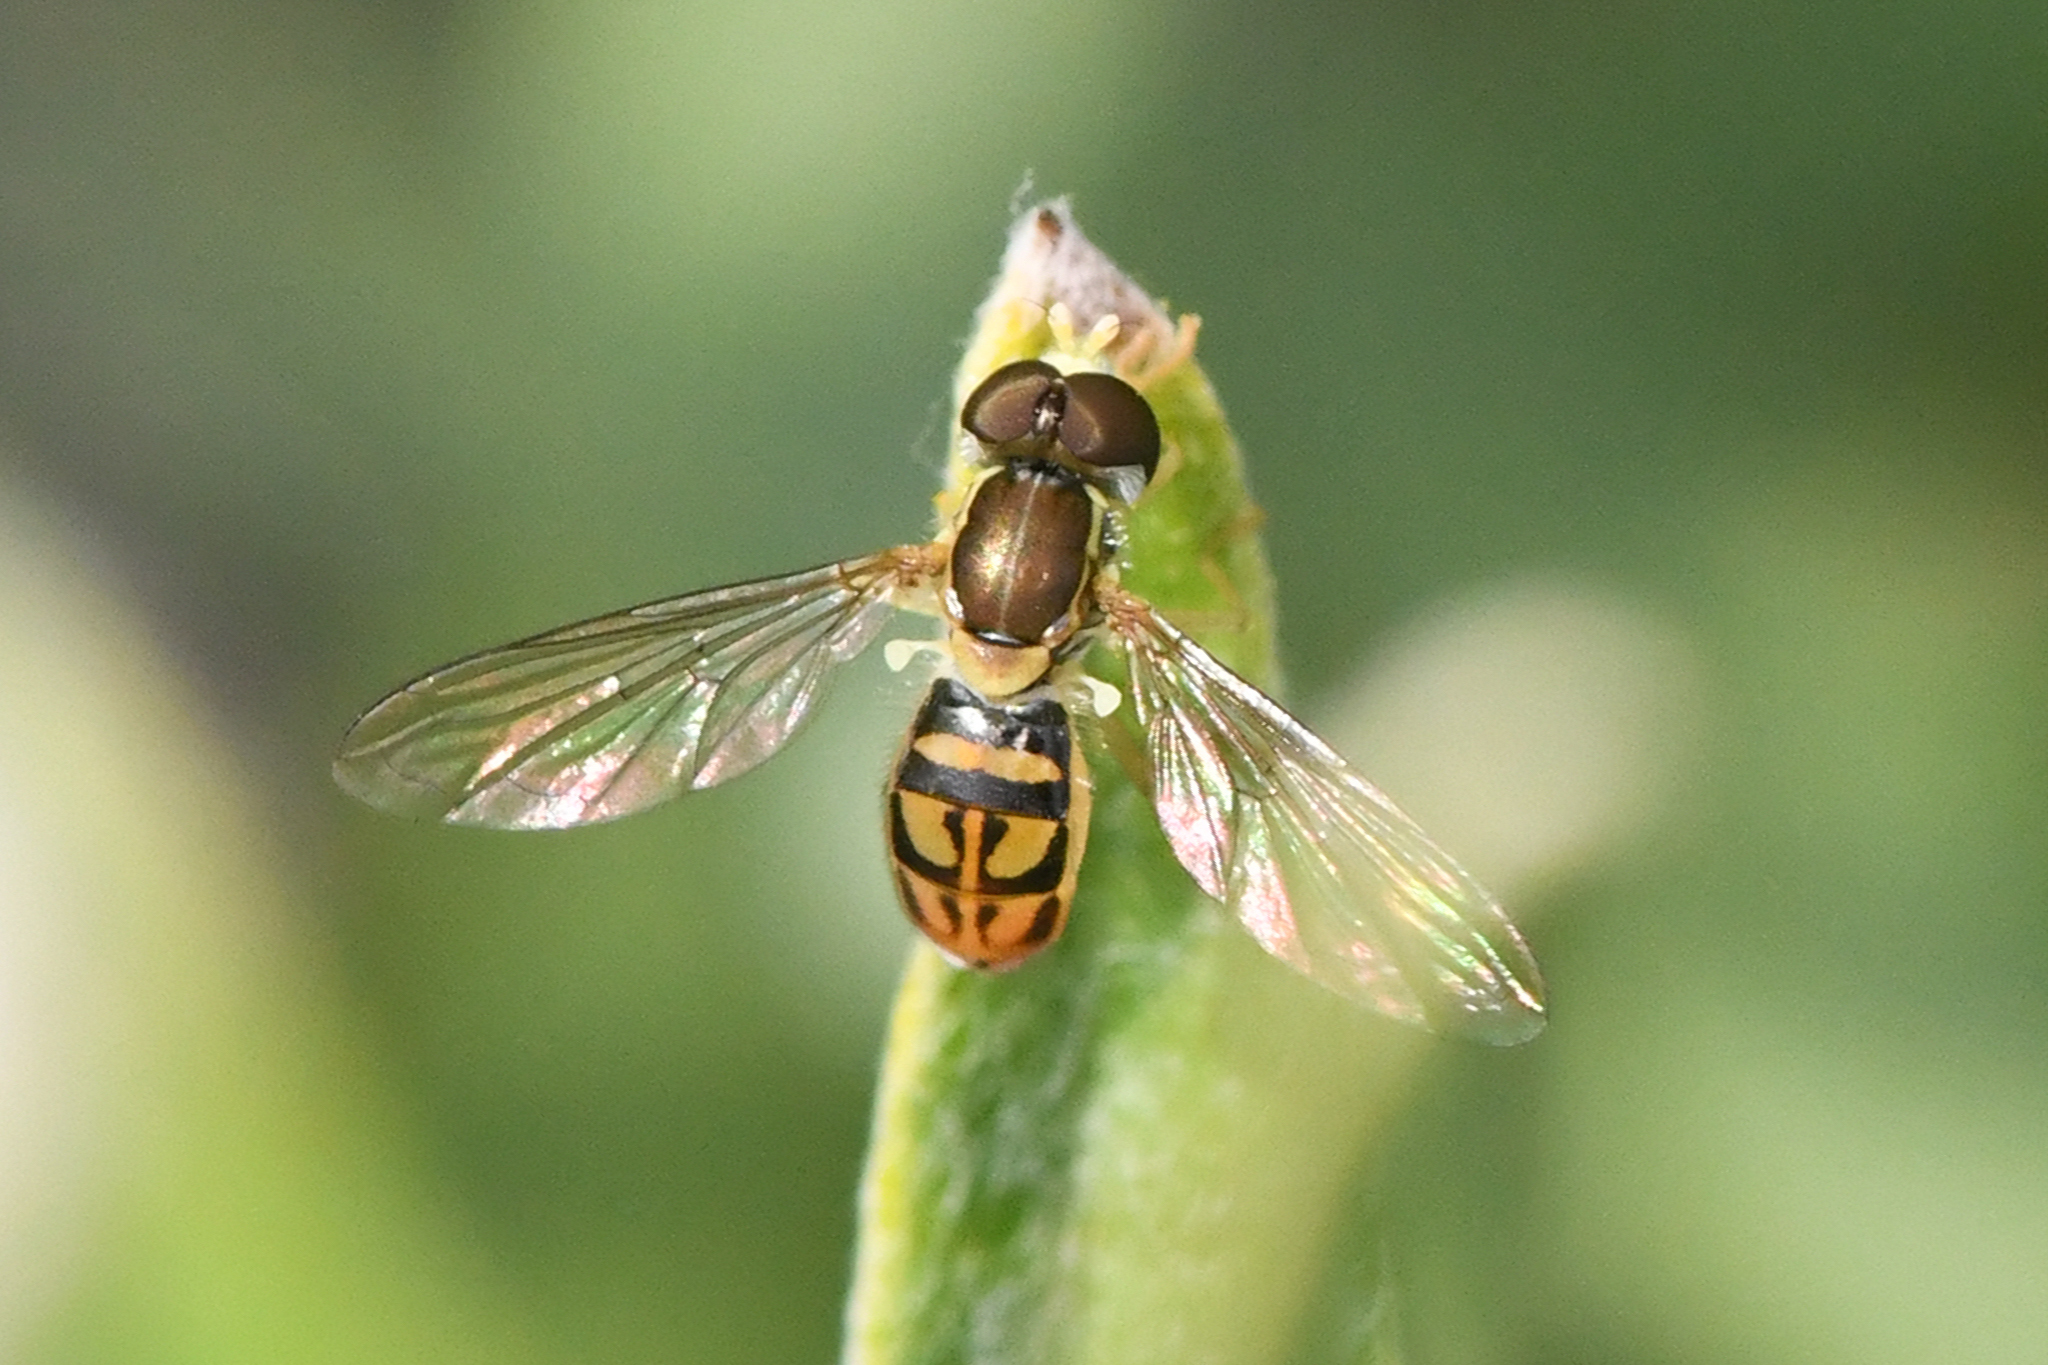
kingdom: Animalia
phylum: Arthropoda
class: Insecta
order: Diptera
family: Syrphidae
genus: Toxomerus
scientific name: Toxomerus marginatus
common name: Syrphid fly
